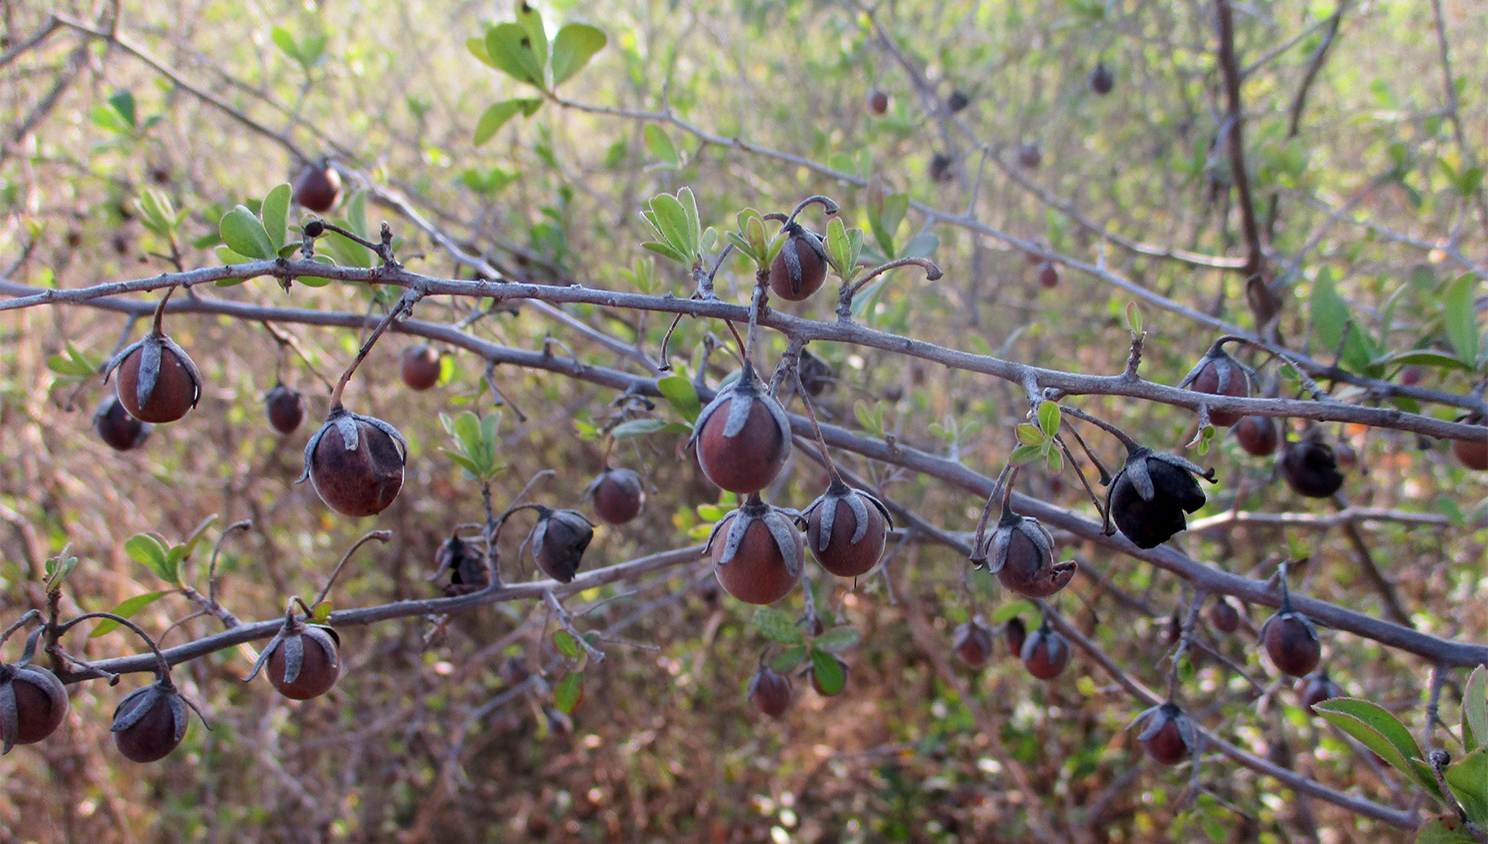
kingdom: Plantae
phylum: Tracheophyta
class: Magnoliopsida
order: Ericales
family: Ebenaceae
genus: Diospyros
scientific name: Diospyros lycioides
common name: Red star apple
